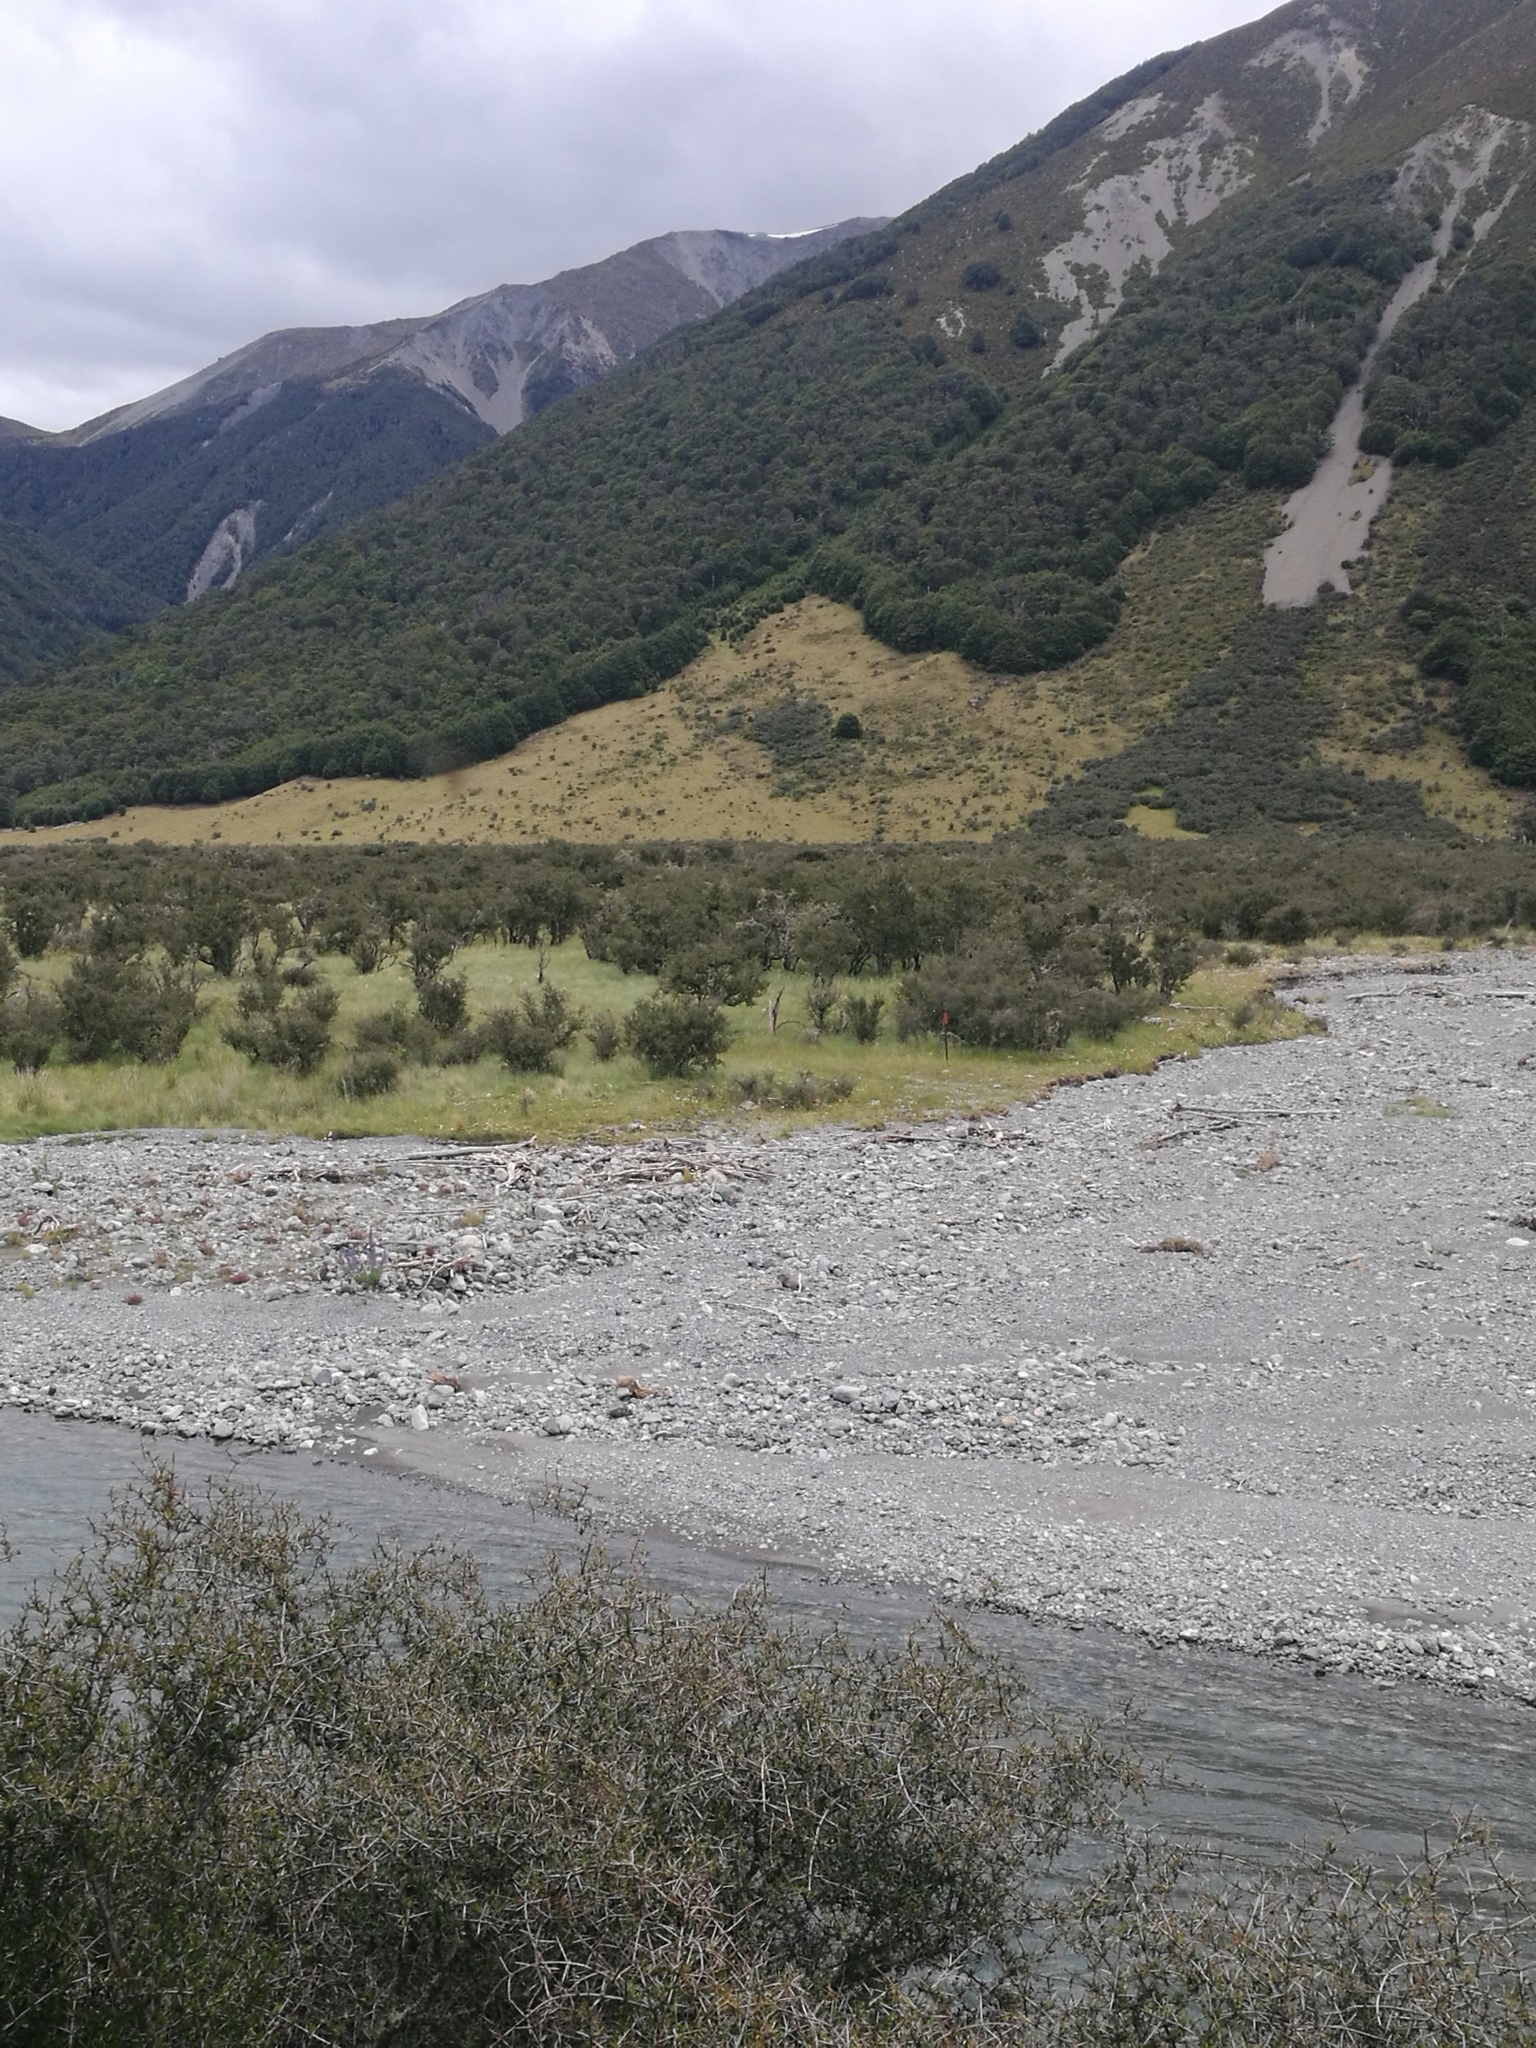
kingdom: Plantae
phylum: Tracheophyta
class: Magnoliopsida
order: Rosales
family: Rhamnaceae
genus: Discaria
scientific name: Discaria toumatou
